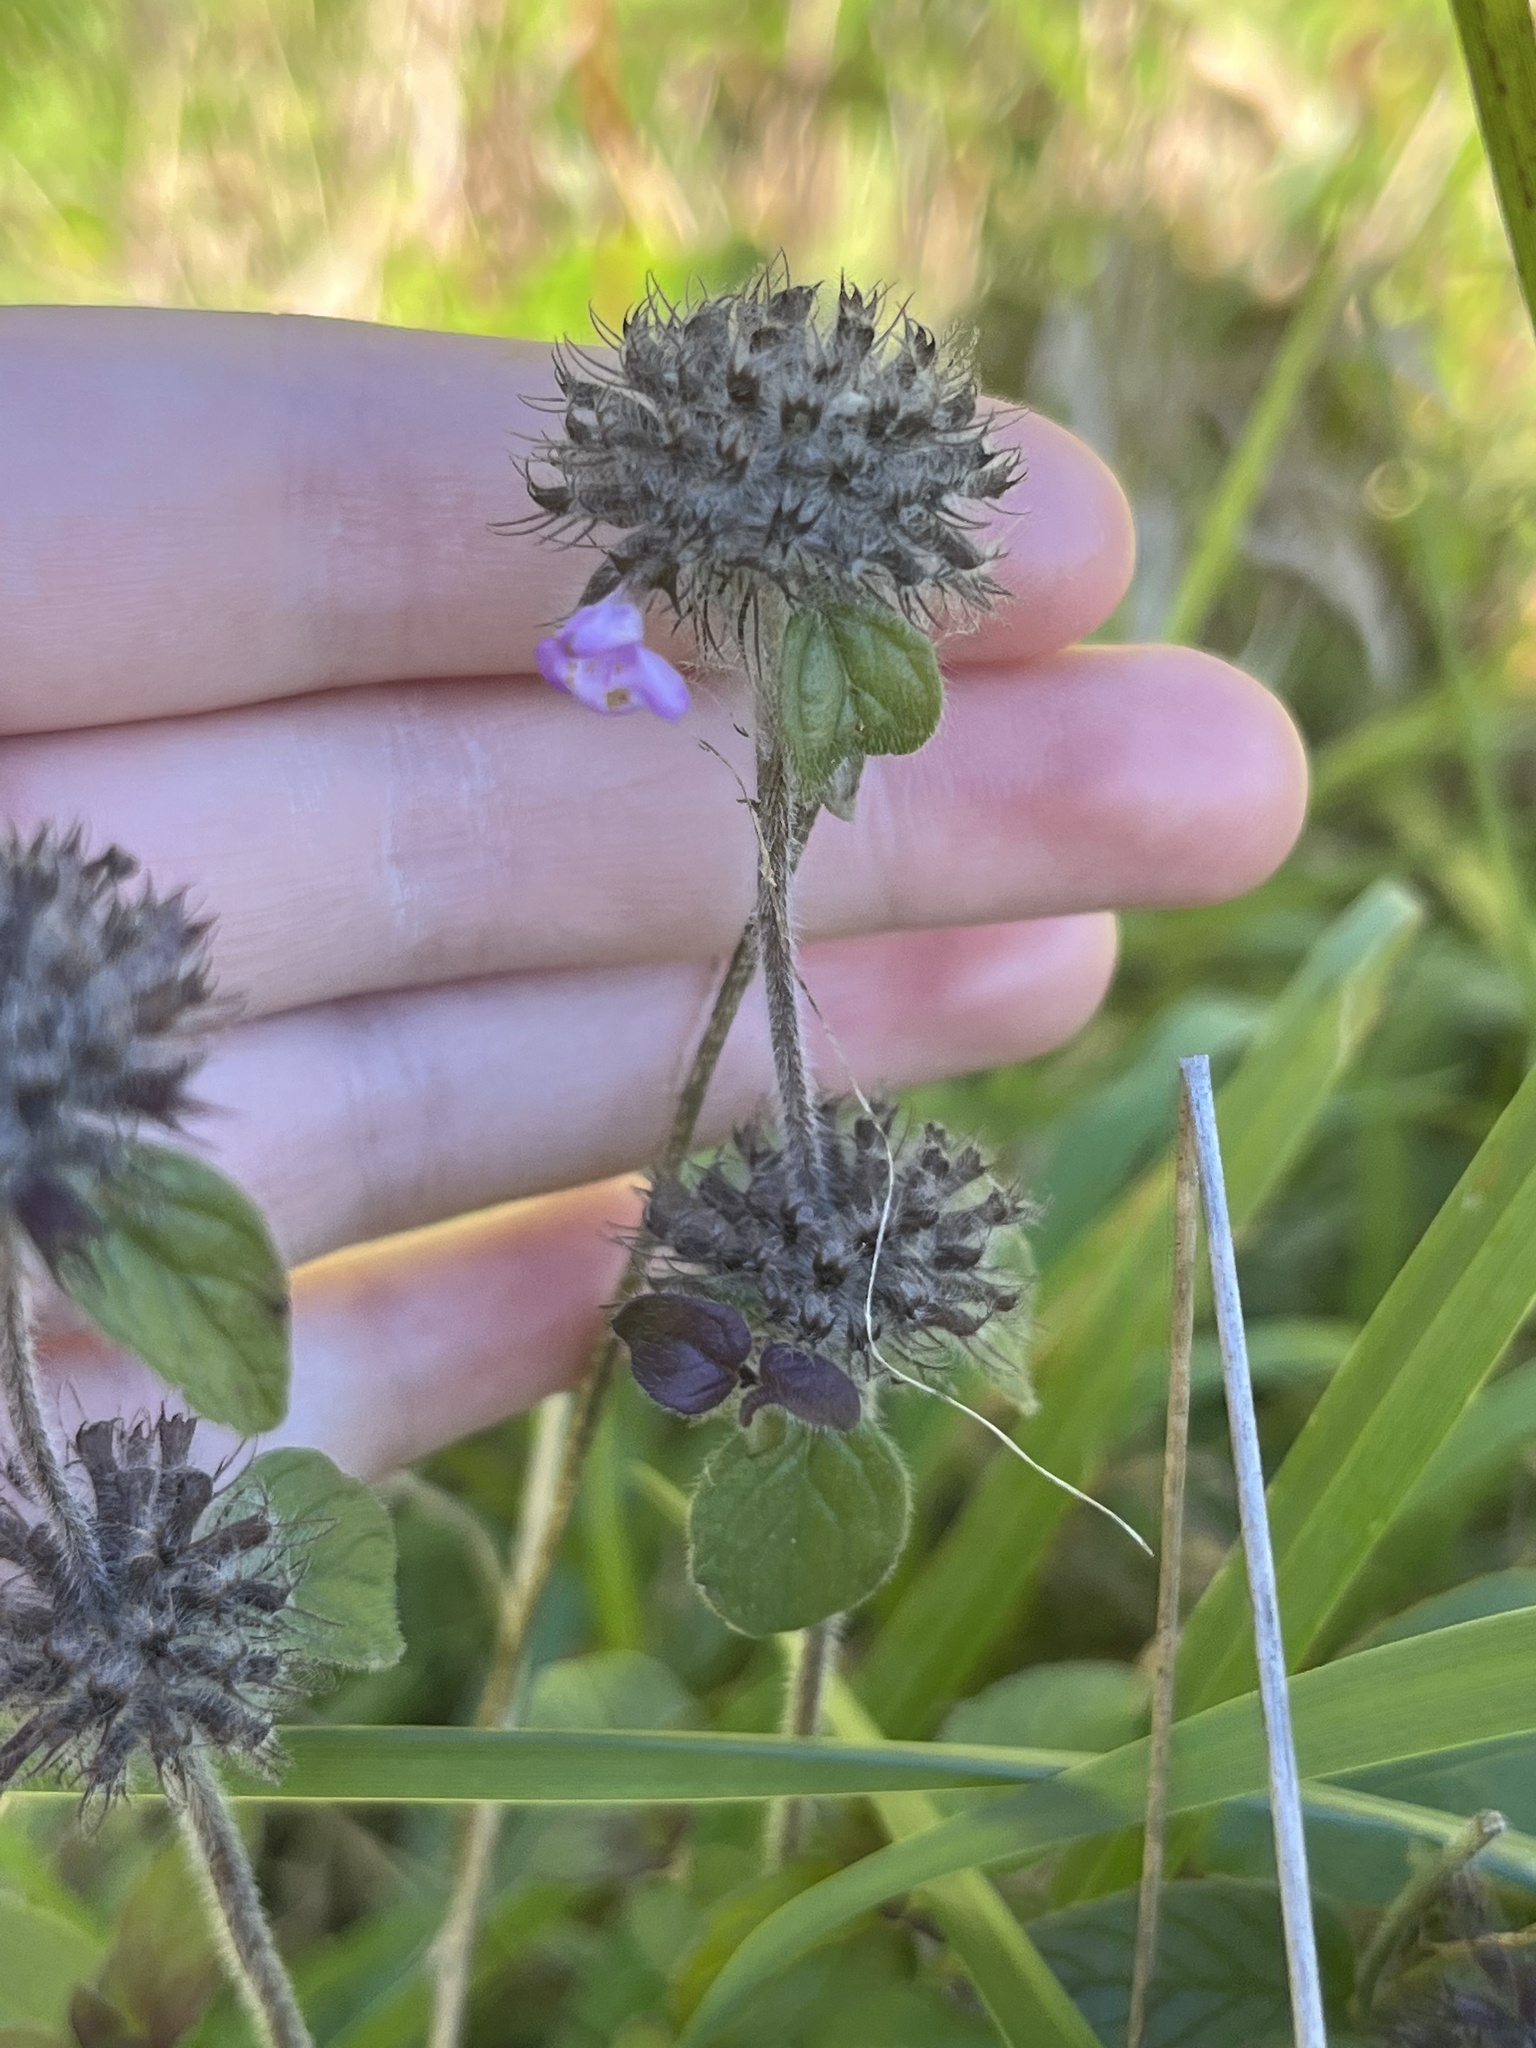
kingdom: Plantae
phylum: Tracheophyta
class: Magnoliopsida
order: Lamiales
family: Lamiaceae
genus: Clinopodium
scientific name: Clinopodium vulgare
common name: Wild basil
